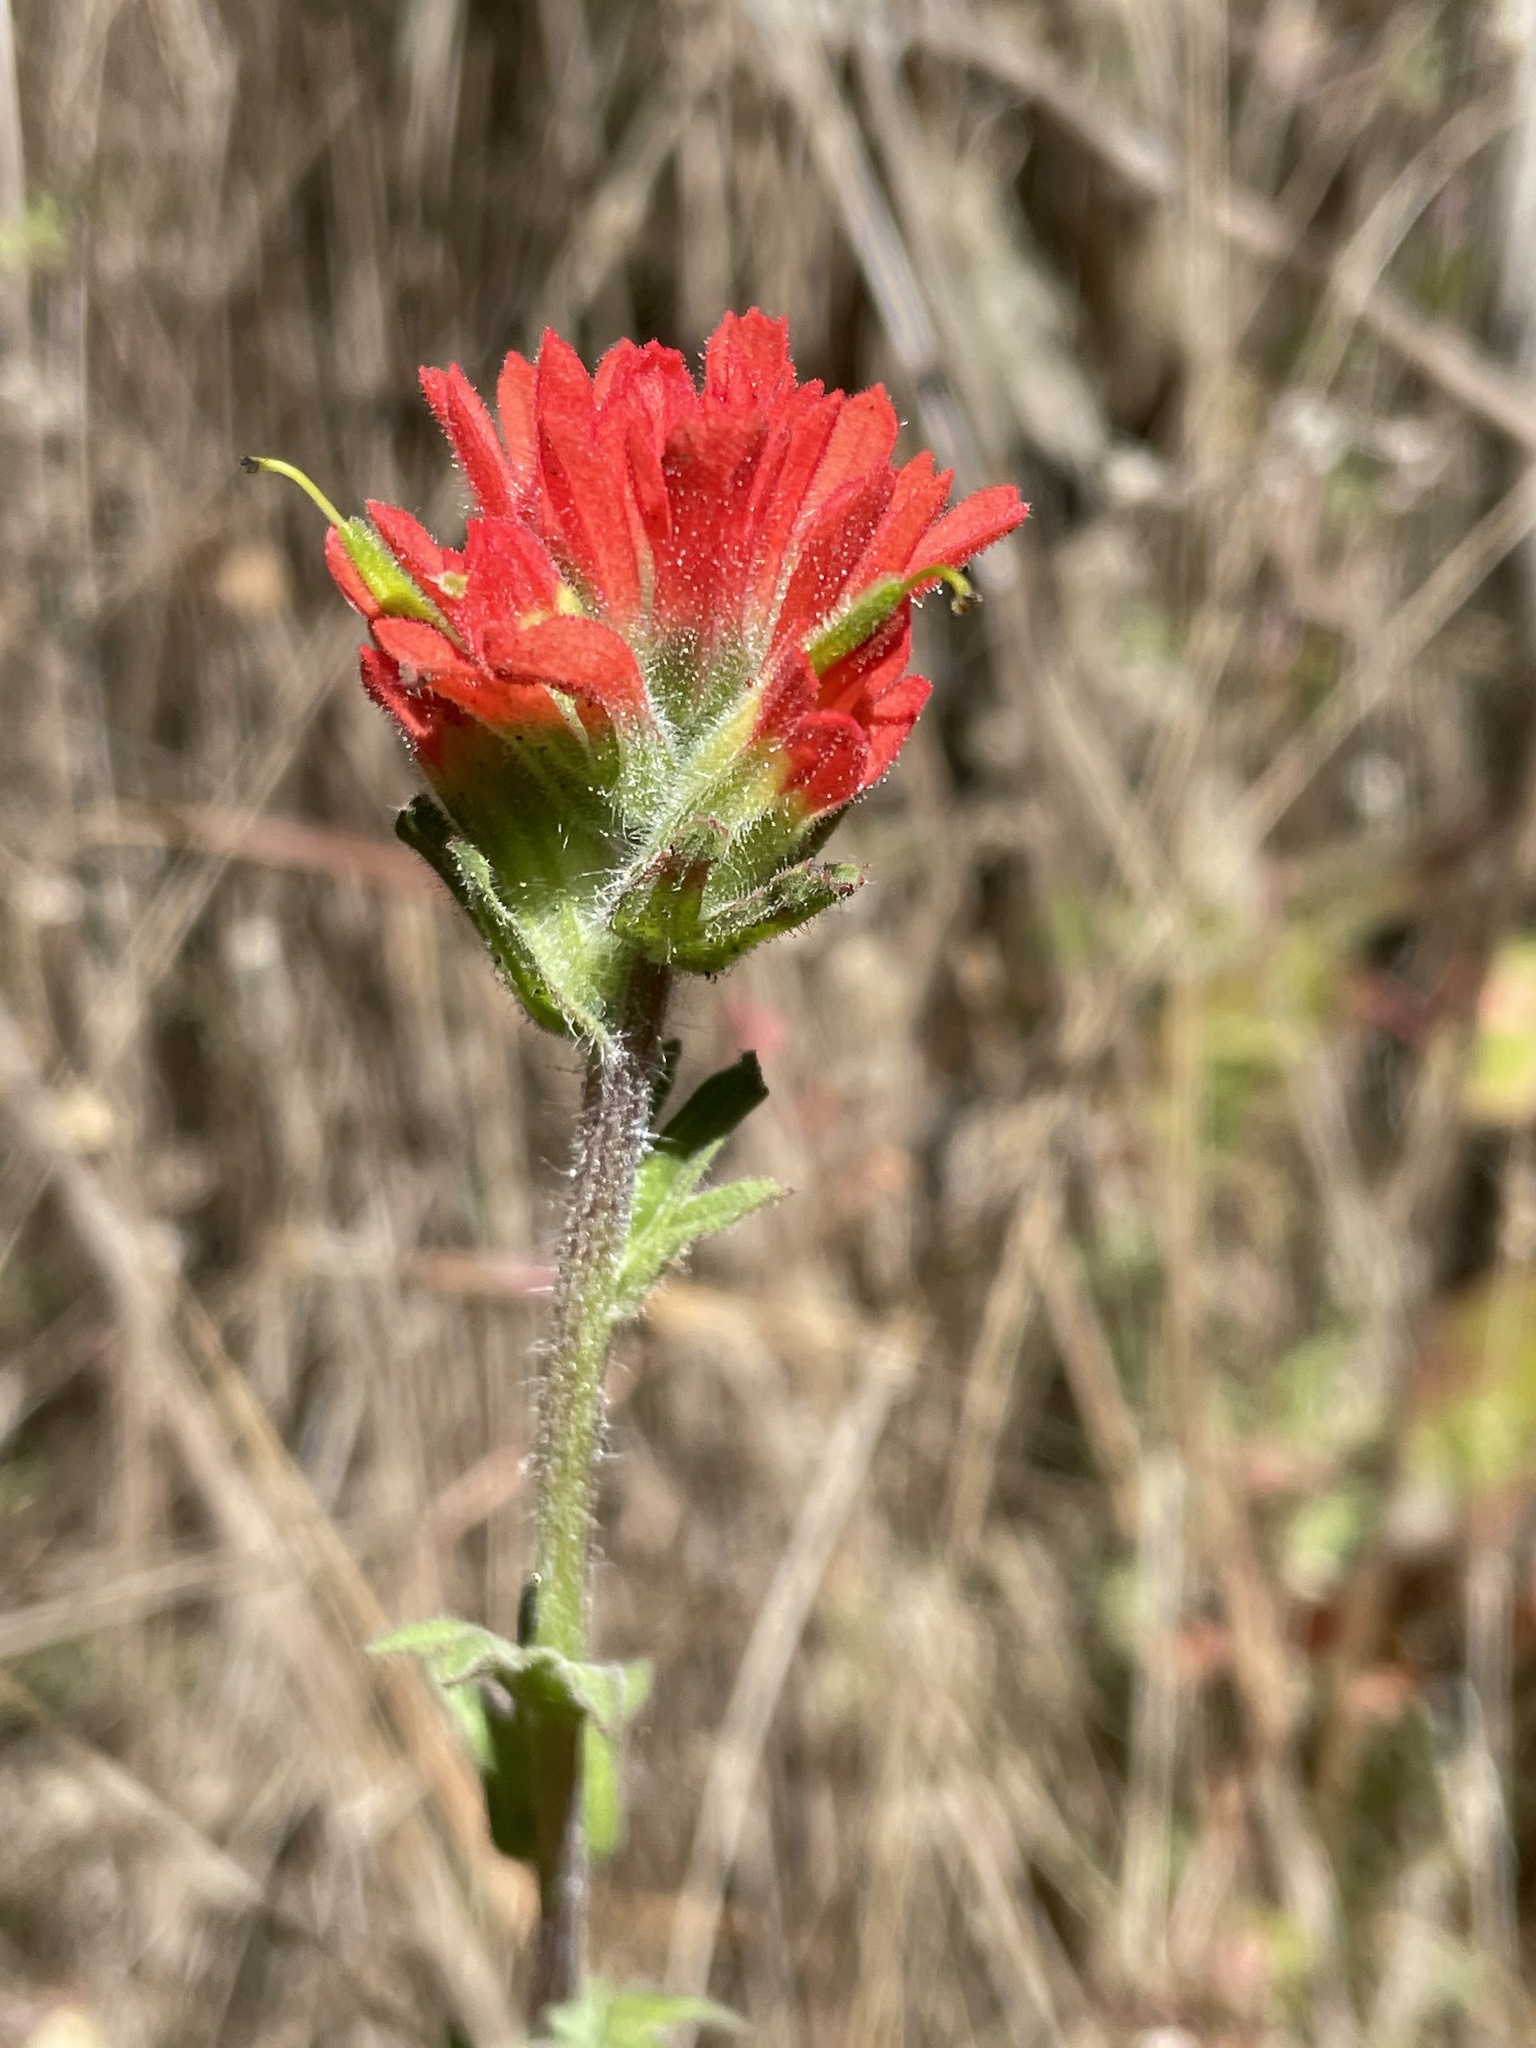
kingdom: Plantae
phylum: Tracheophyta
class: Magnoliopsida
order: Lamiales
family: Orobanchaceae
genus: Castilleja
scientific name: Castilleja affinis
